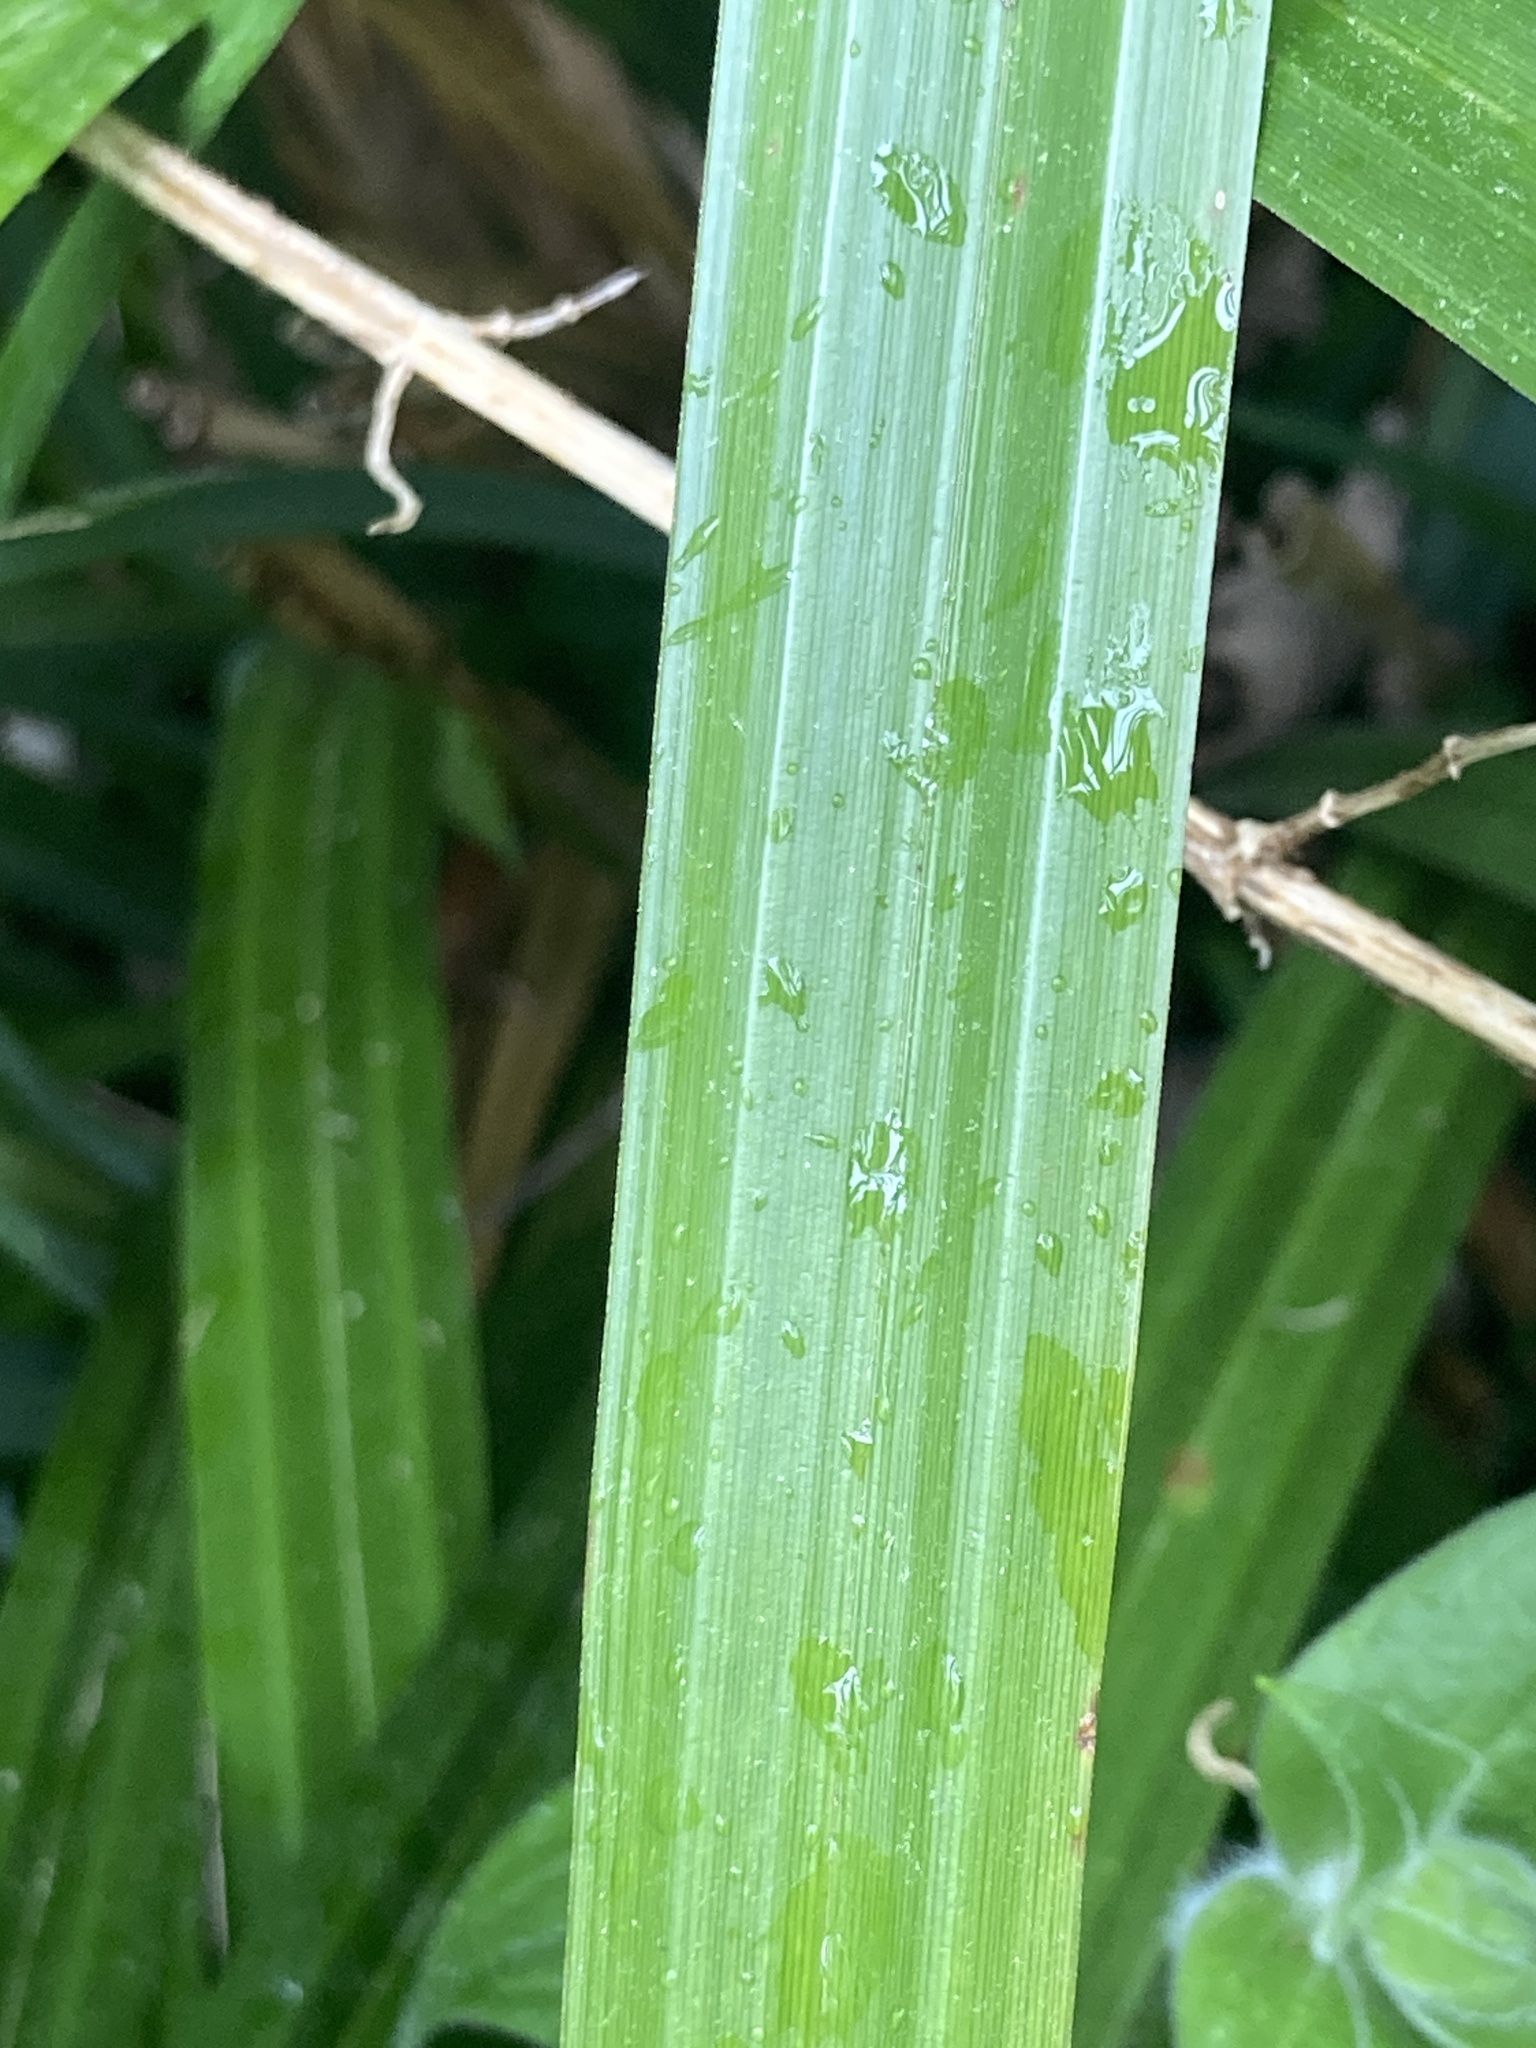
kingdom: Plantae
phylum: Tracheophyta
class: Liliopsida
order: Poales
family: Cyperaceae
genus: Carex
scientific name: Carex pendula
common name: Pendulous sedge
